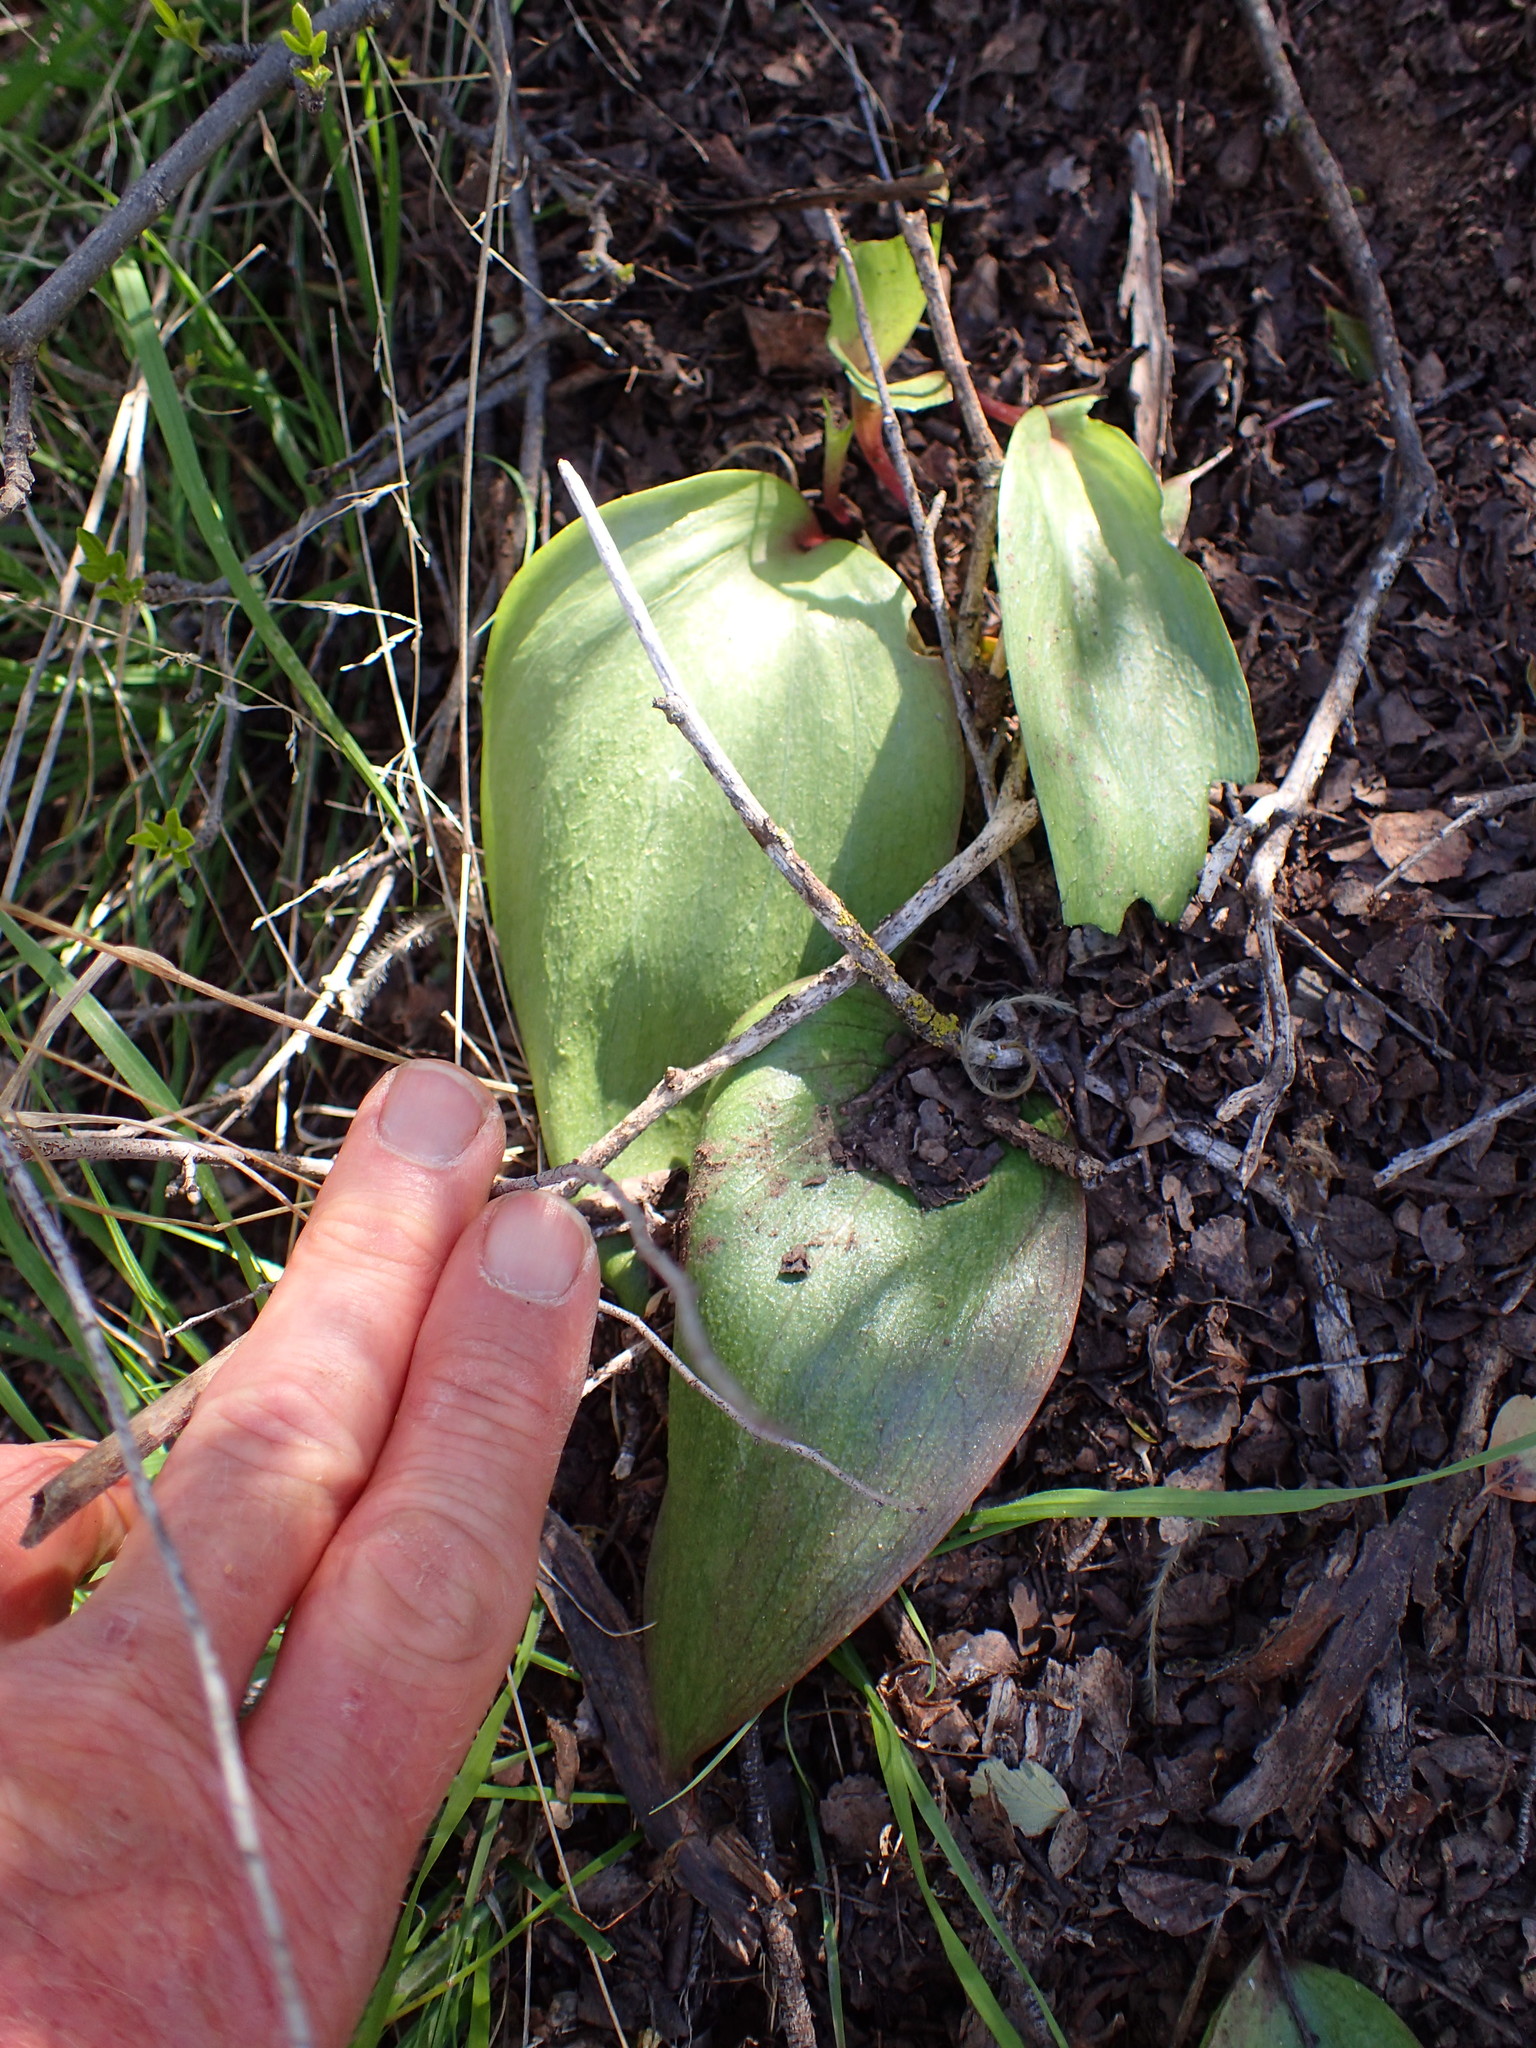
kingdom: Plantae
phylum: Tracheophyta
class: Liliopsida
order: Liliales
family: Liliaceae
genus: Fritillaria
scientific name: Fritillaria ojaiensis
